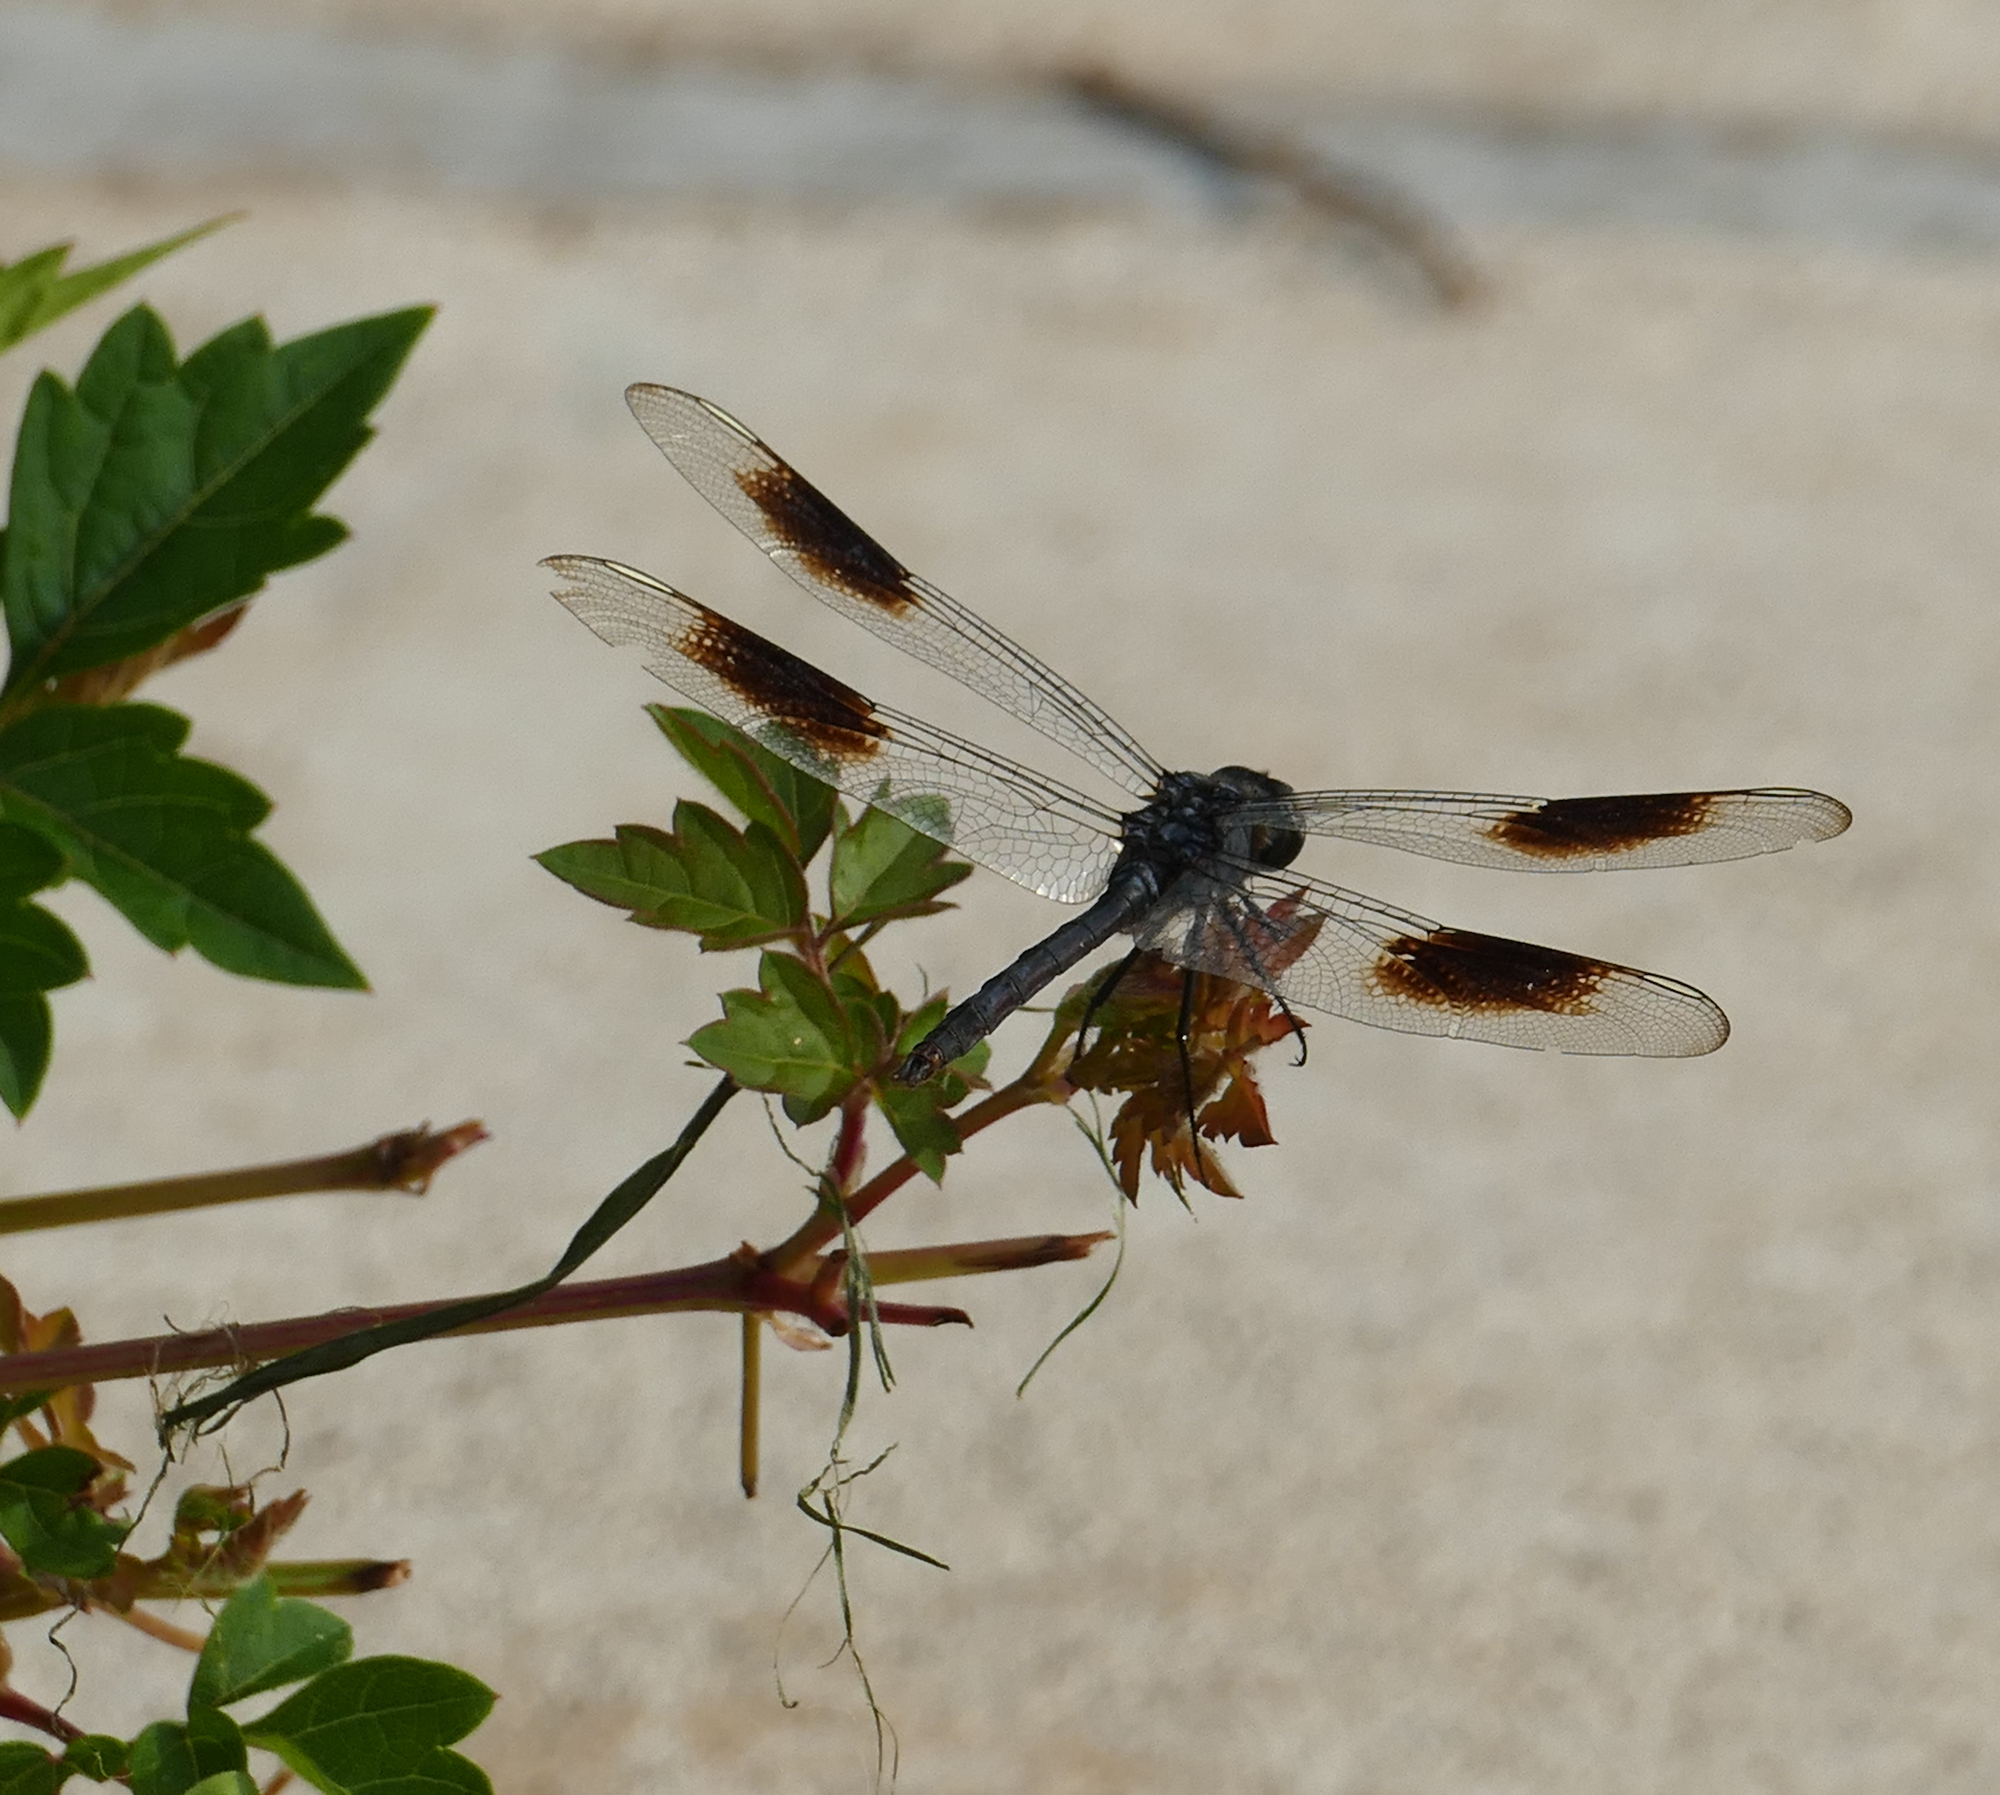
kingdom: Animalia
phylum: Arthropoda
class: Insecta
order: Odonata
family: Libellulidae
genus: Brachymesia
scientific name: Brachymesia gravida
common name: Four-spotted pennant
